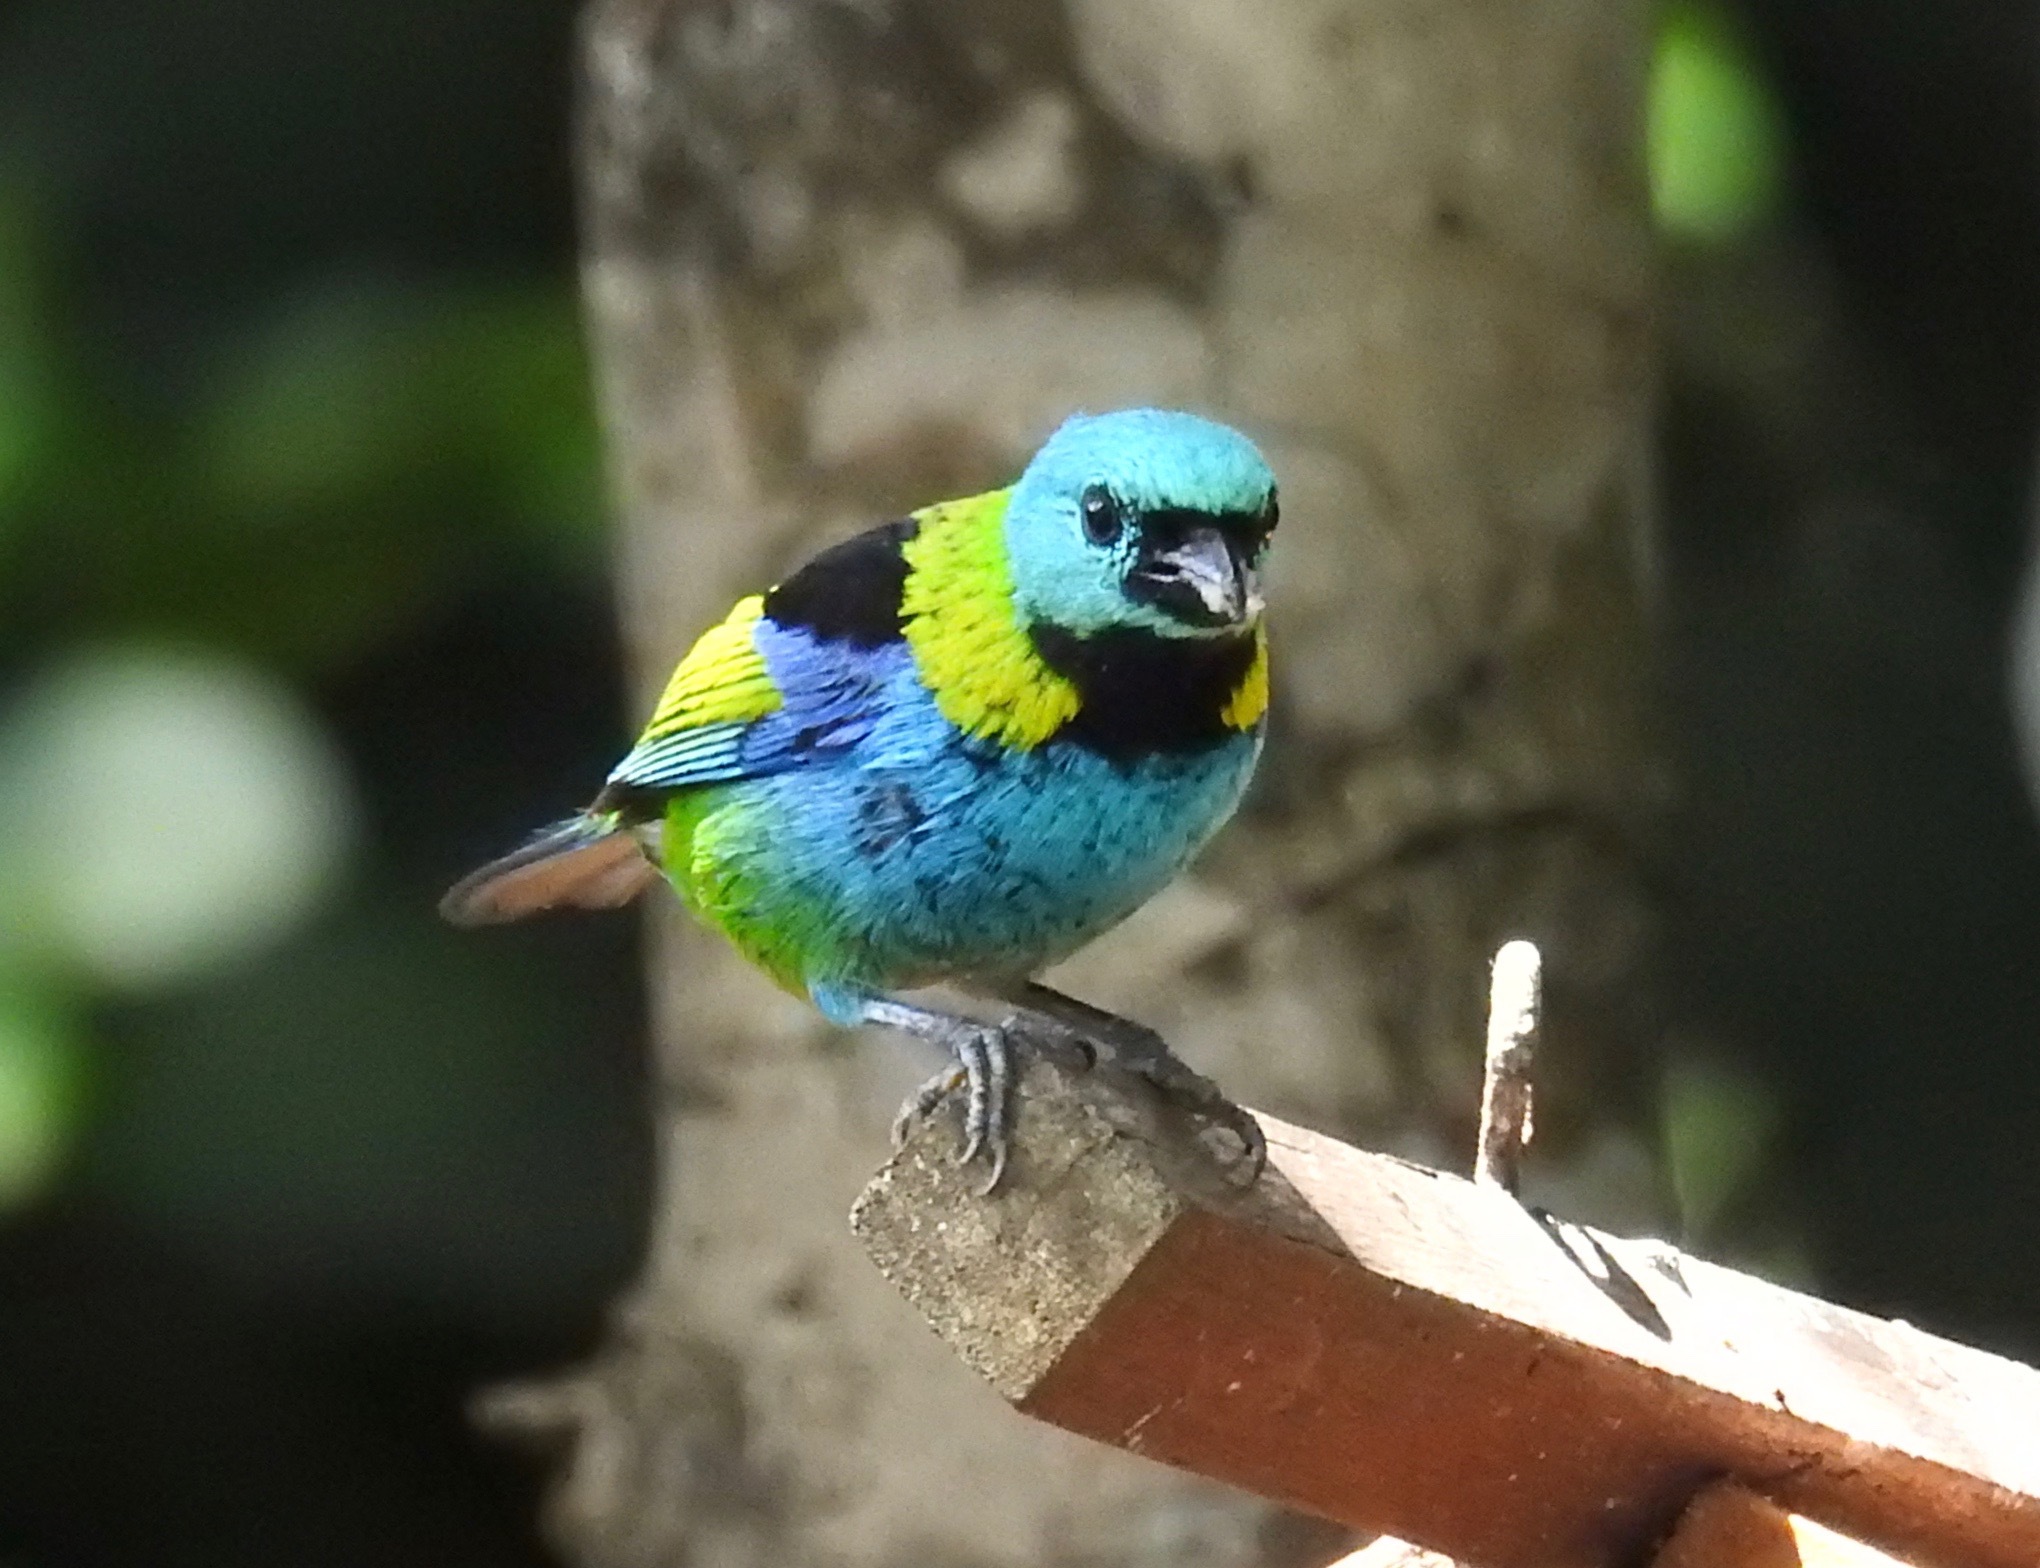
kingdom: Animalia
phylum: Chordata
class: Aves
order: Passeriformes
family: Thraupidae
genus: Tangara
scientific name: Tangara seledon
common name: Green-headed tanager
